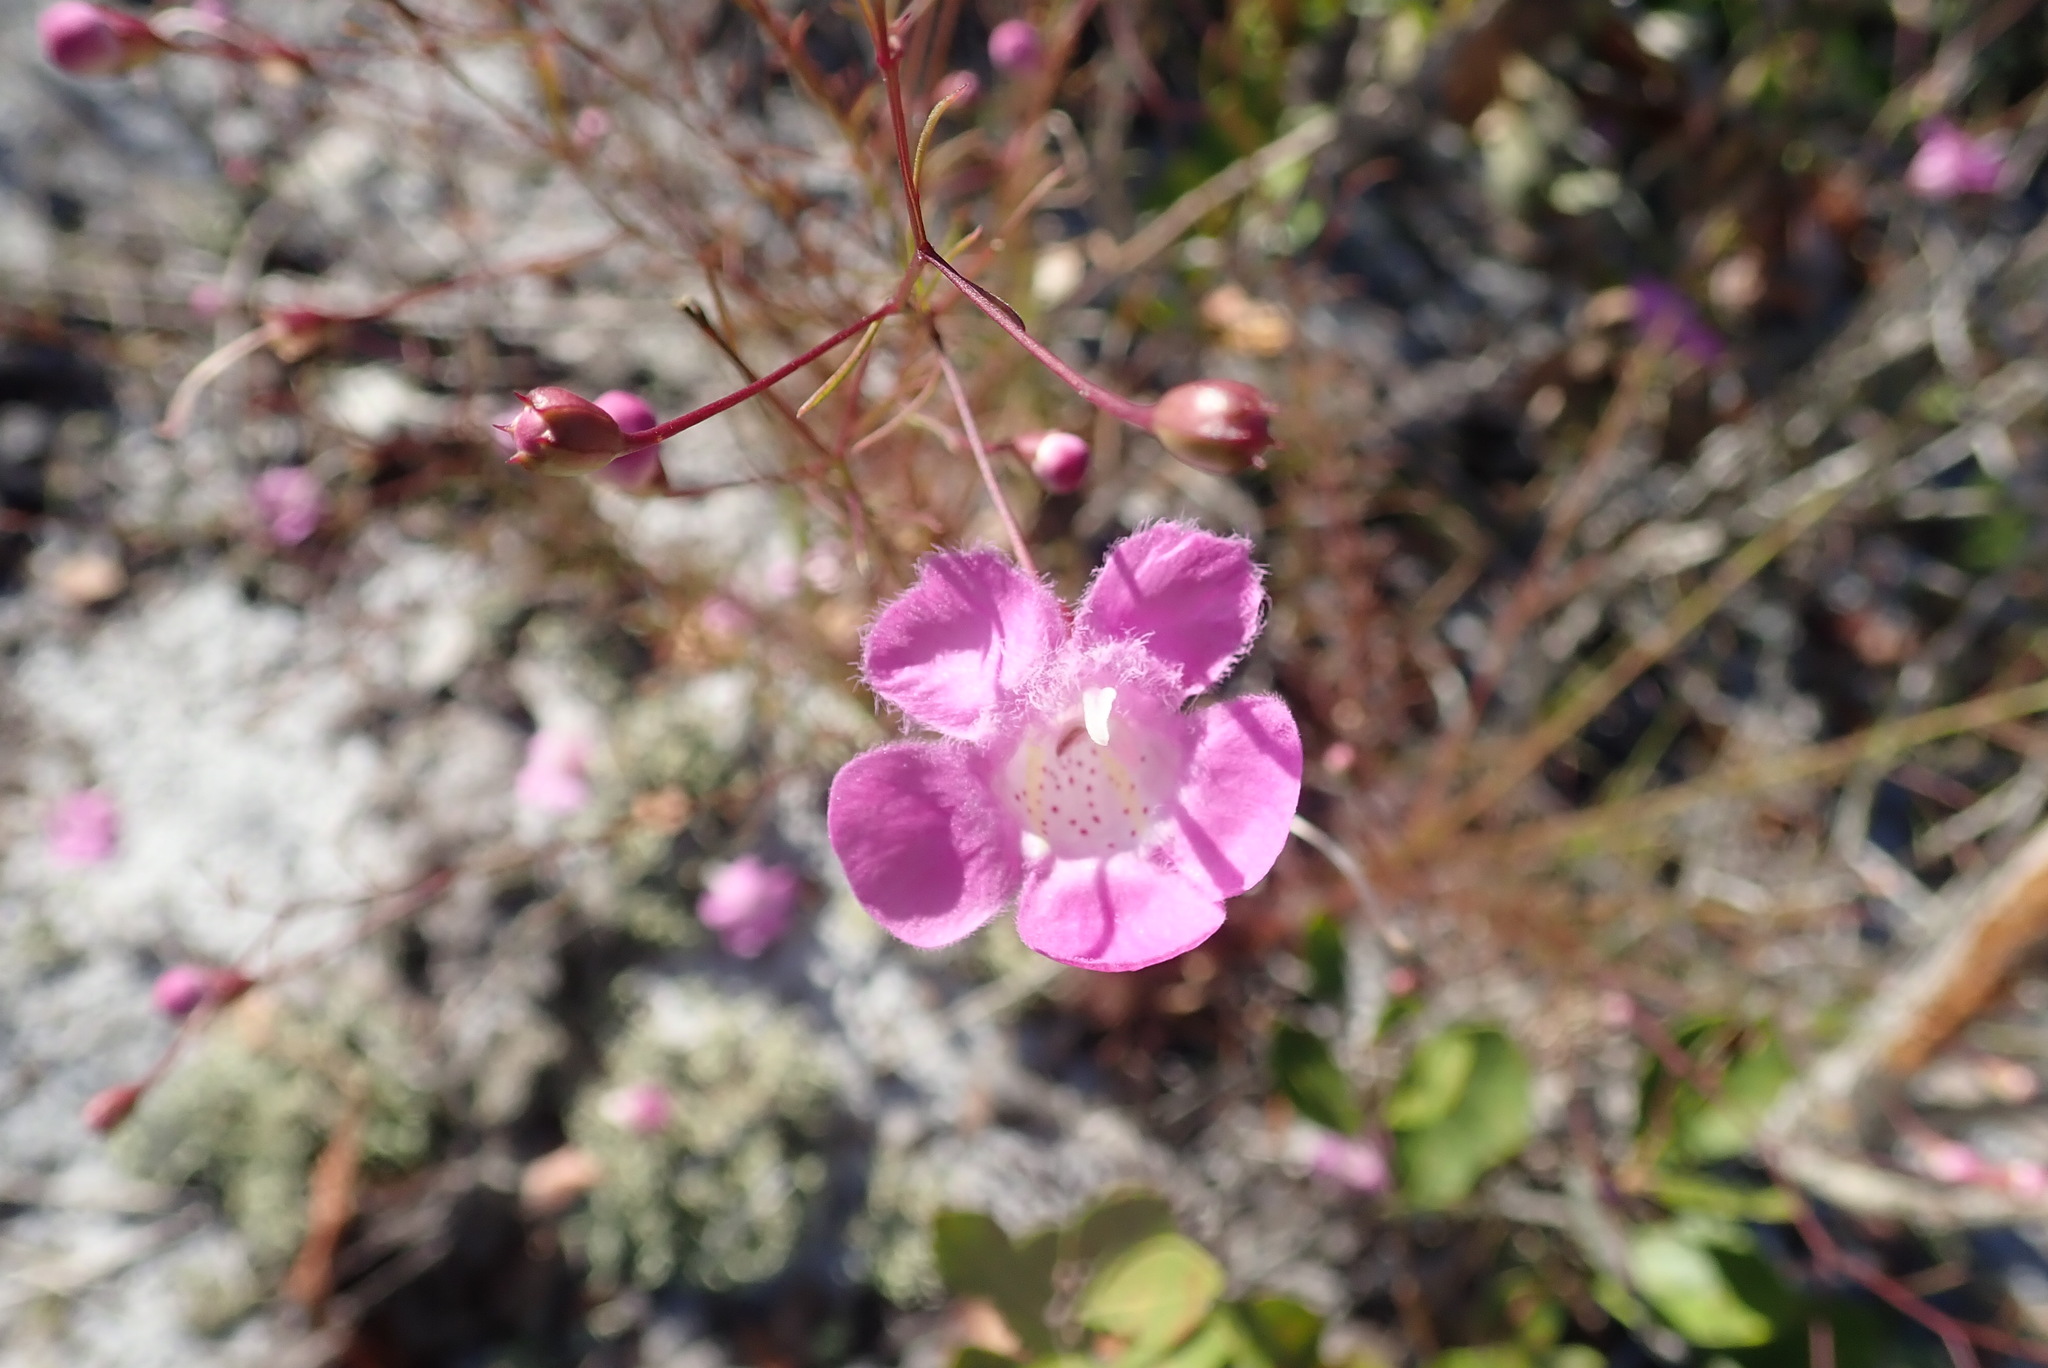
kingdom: Plantae
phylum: Tracheophyta
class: Magnoliopsida
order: Lamiales
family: Orobanchaceae
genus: Agalinis
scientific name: Agalinis filifolia
